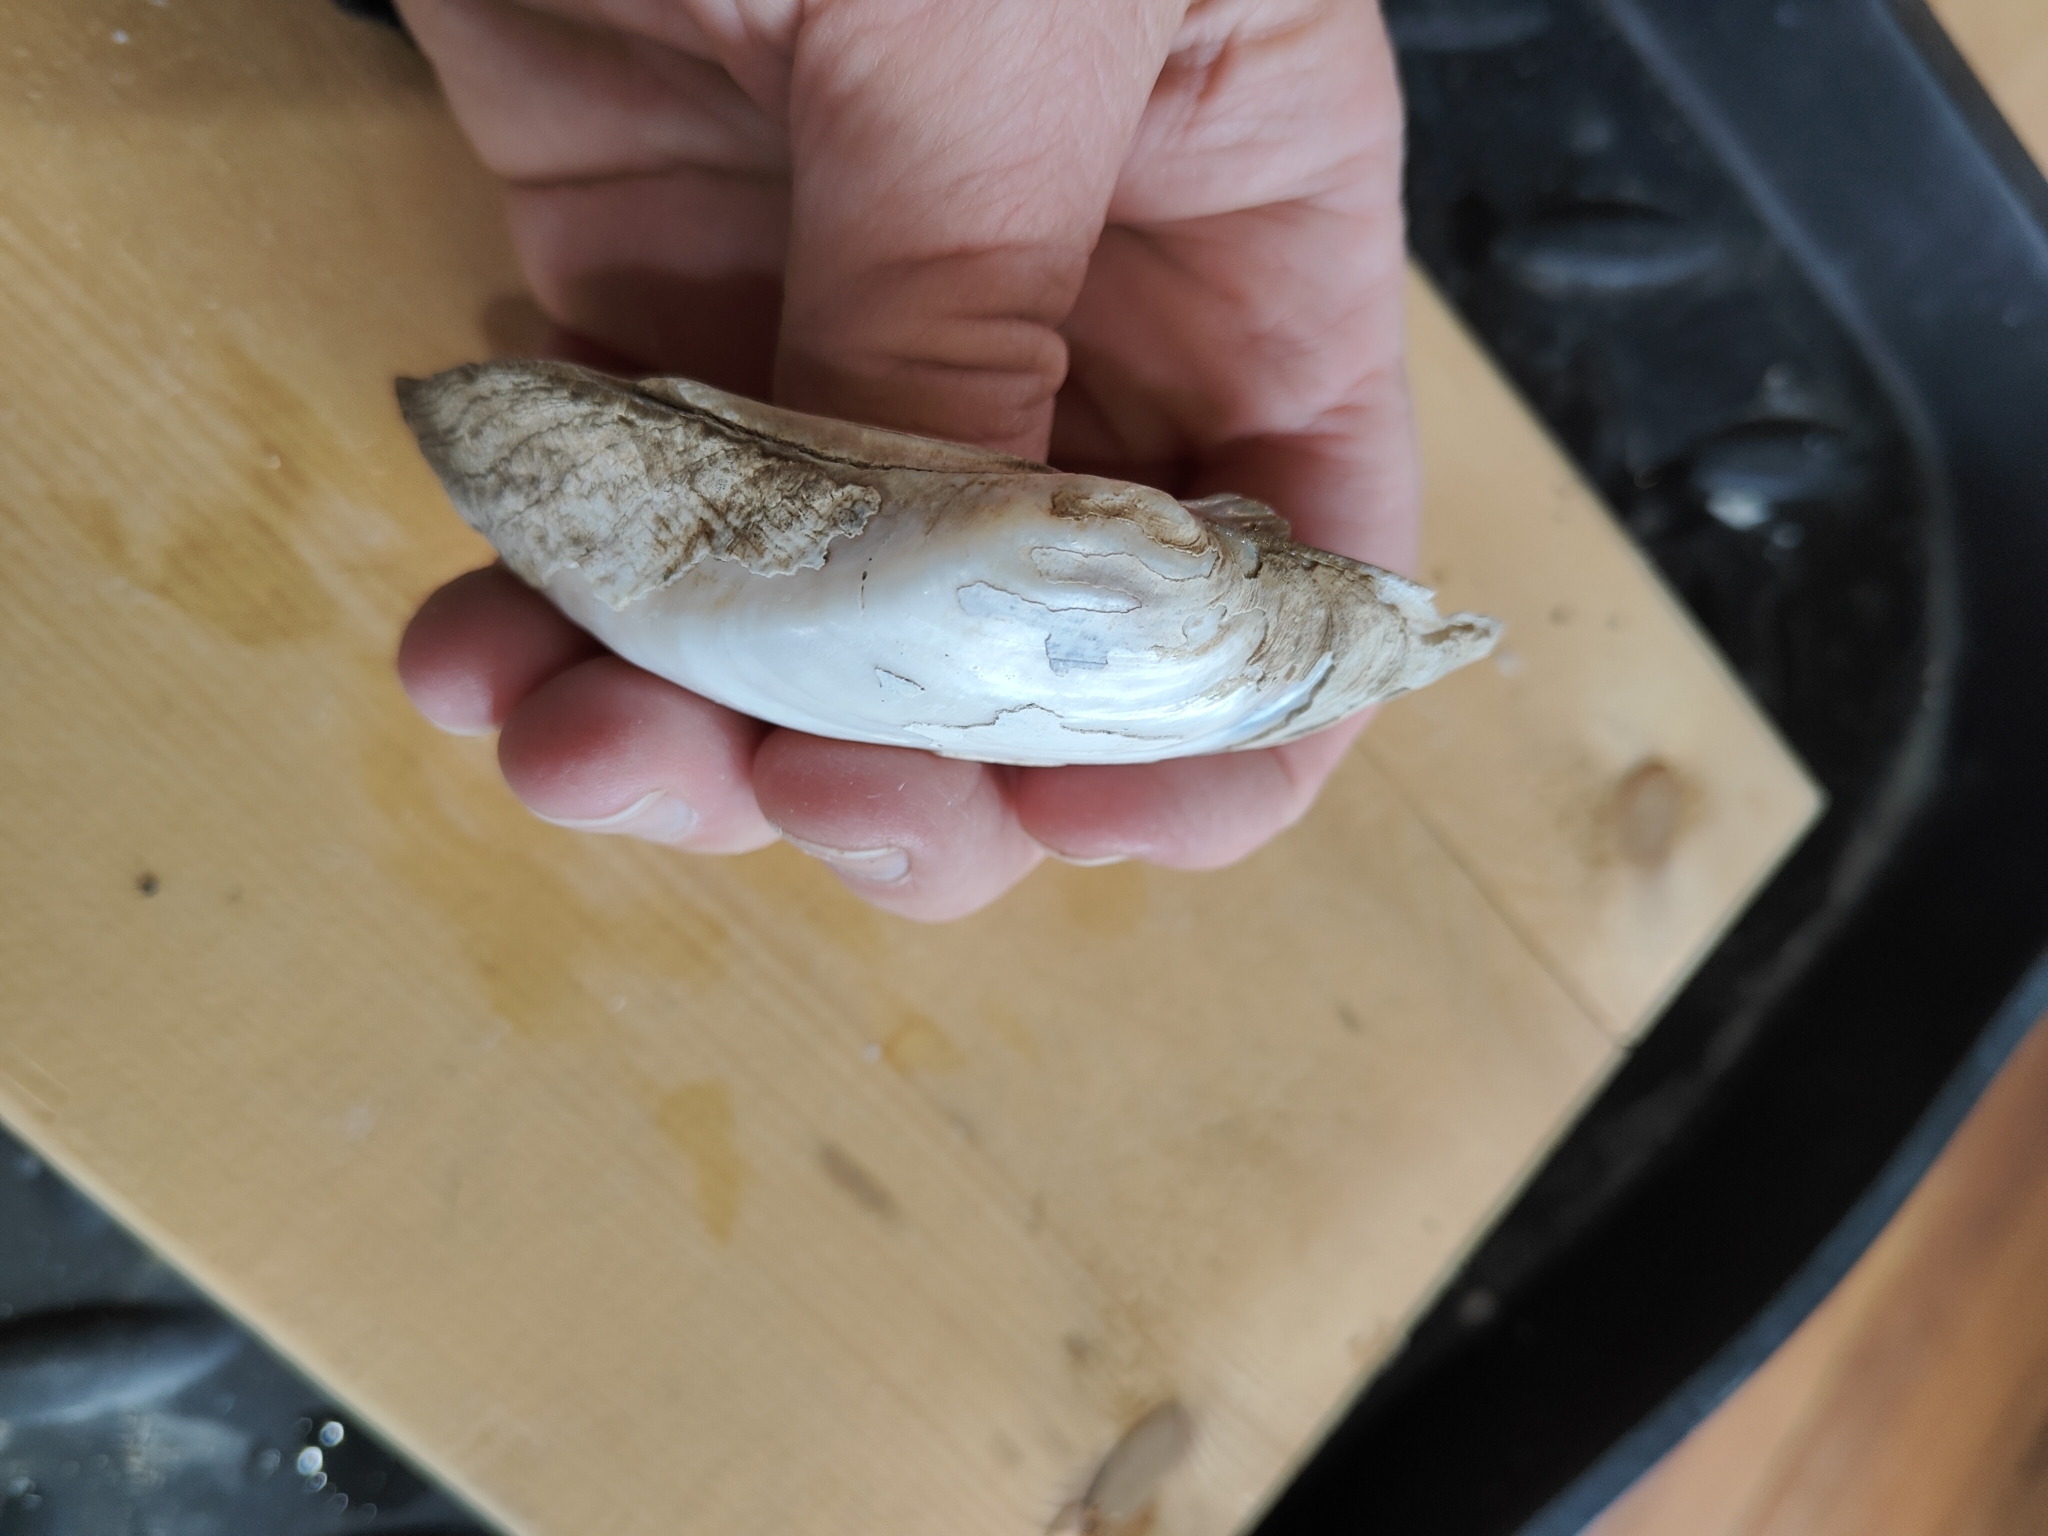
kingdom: Animalia
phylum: Mollusca
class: Bivalvia
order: Unionida
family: Unionidae
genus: Alasmidonta
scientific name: Alasmidonta marginata
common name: Elktoe
